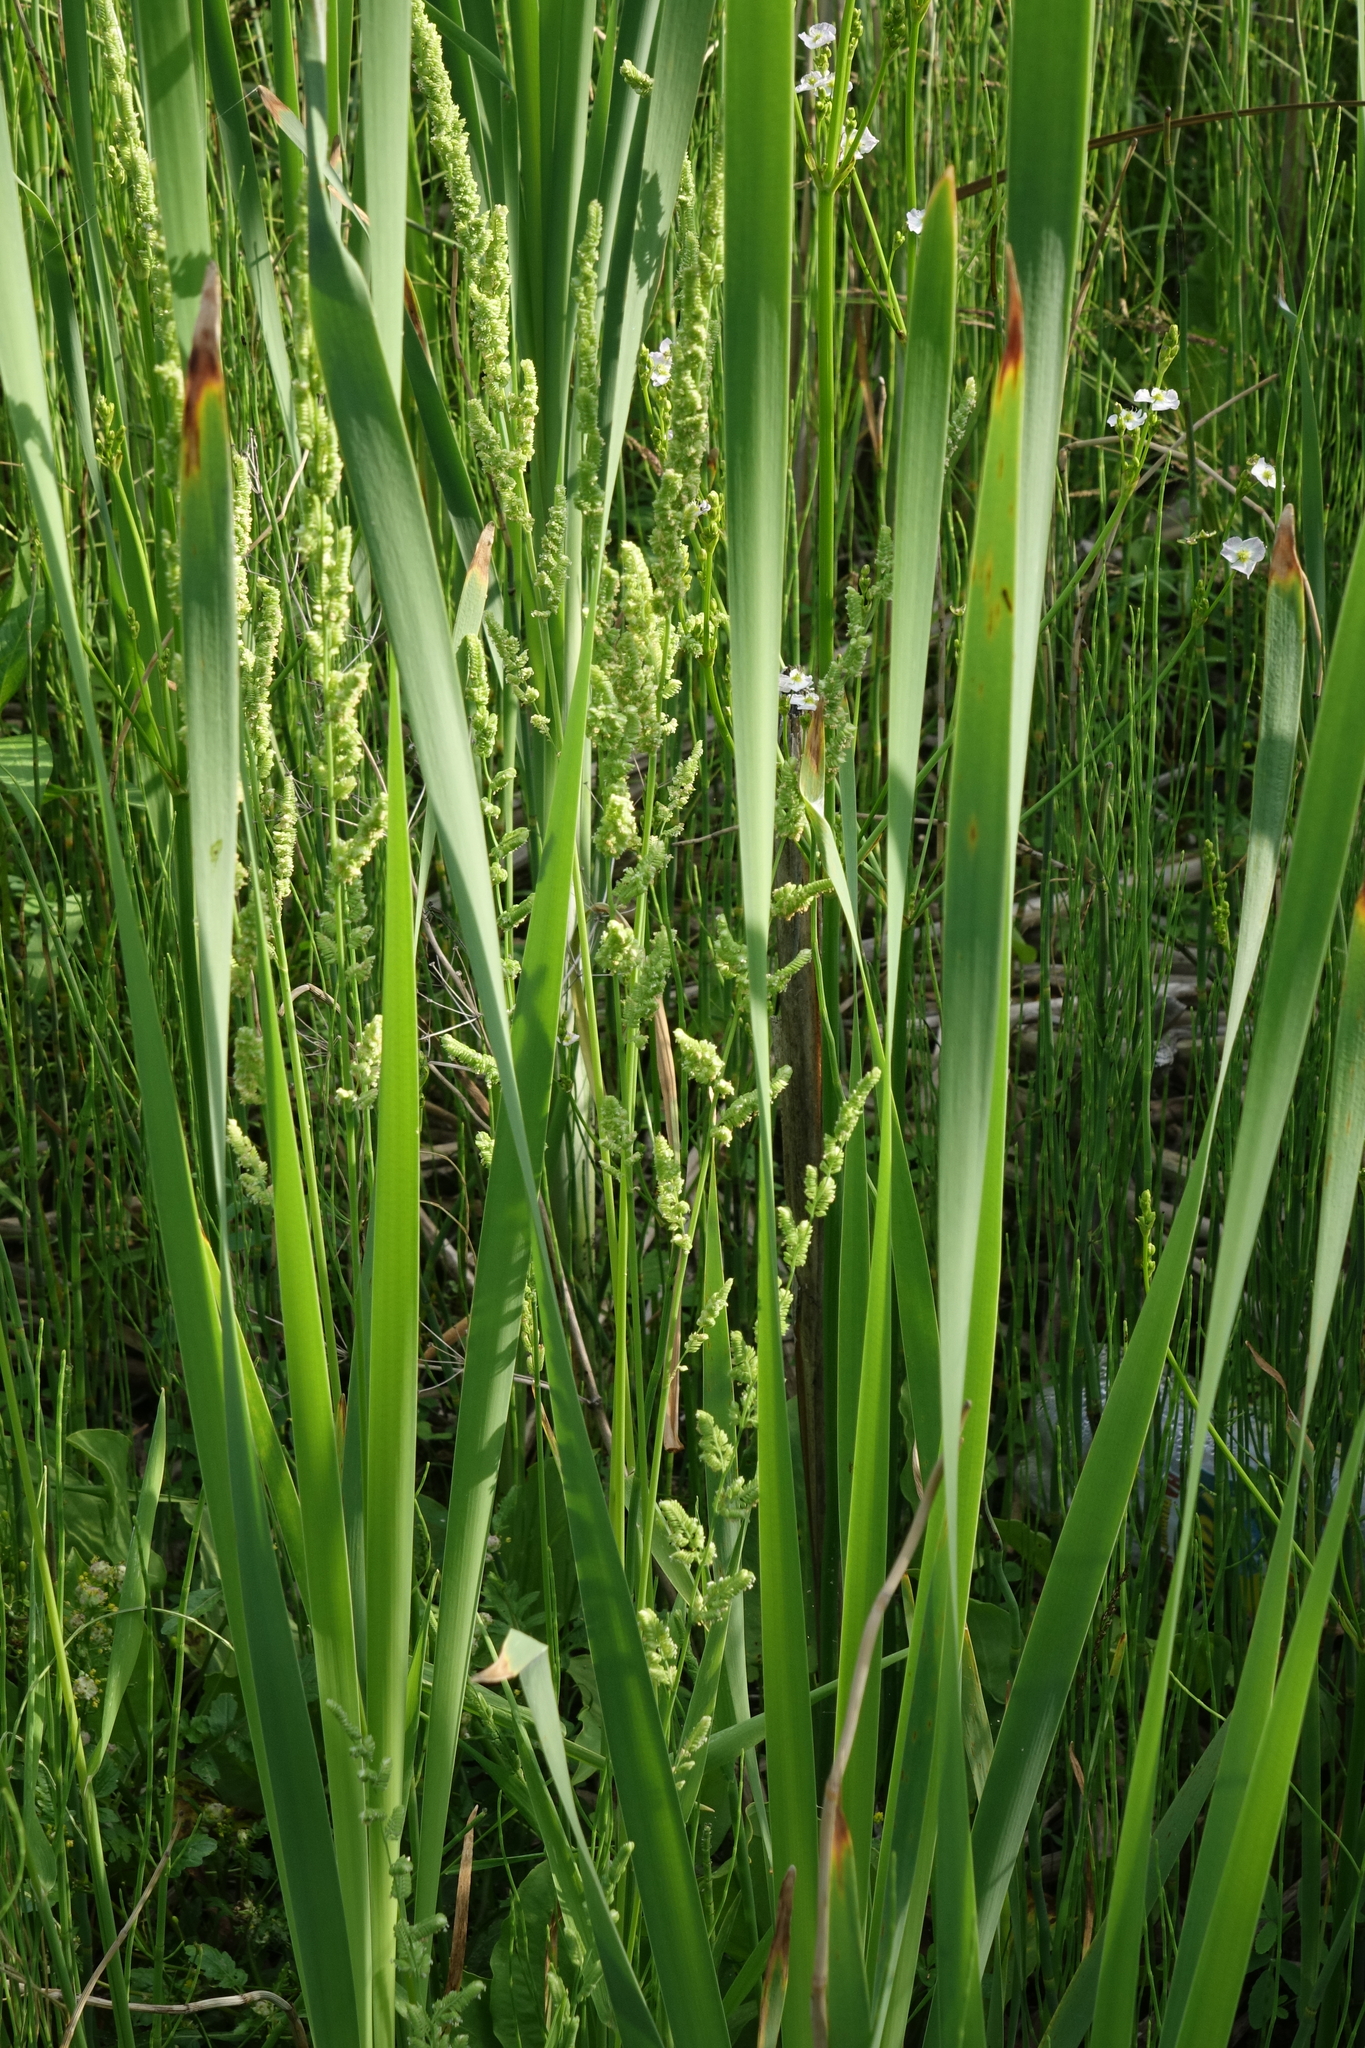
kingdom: Plantae
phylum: Tracheophyta
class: Liliopsida
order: Poales
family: Poaceae
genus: Beckmannia
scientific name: Beckmannia syzigachne
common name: American slough-grass
